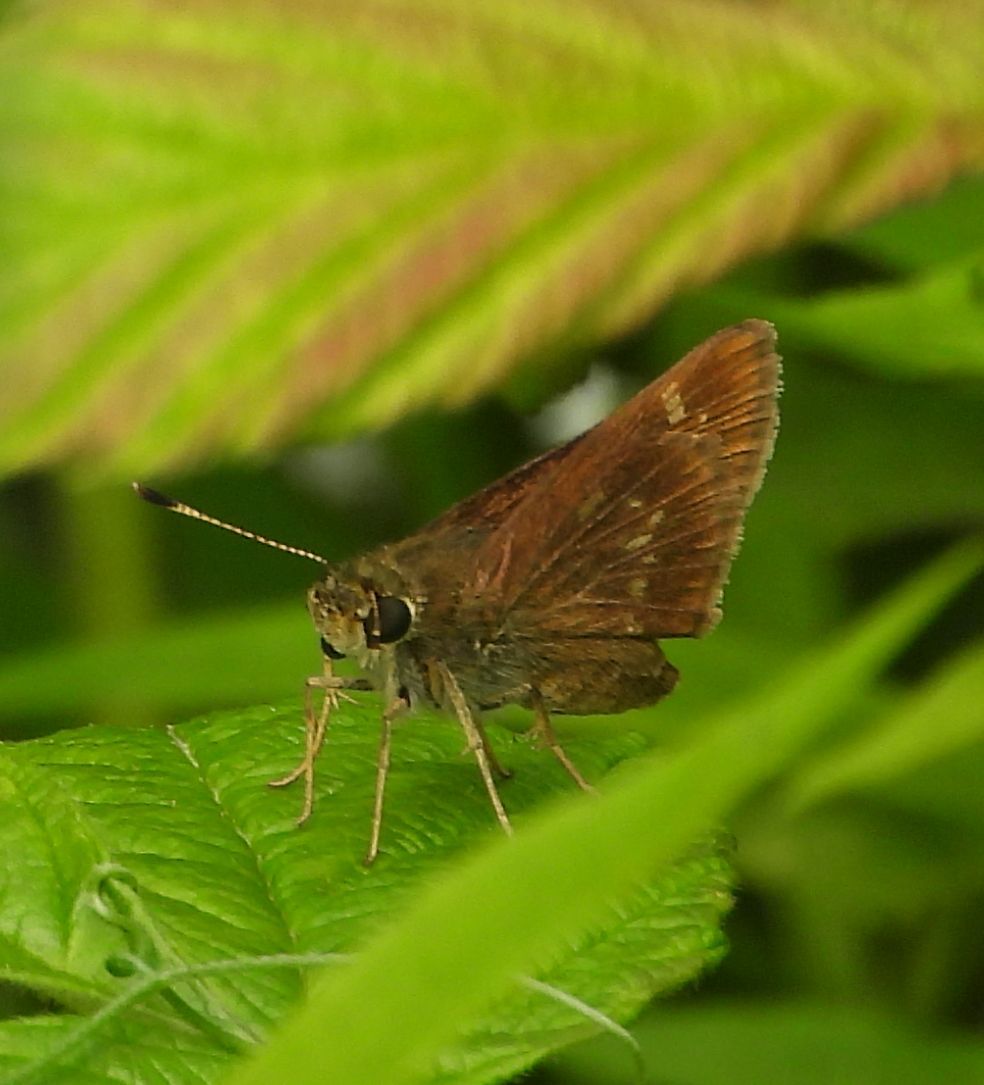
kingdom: Animalia
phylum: Arthropoda
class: Insecta
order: Lepidoptera
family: Hesperiidae
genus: Vernia
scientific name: Vernia verna
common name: Little glassywing
